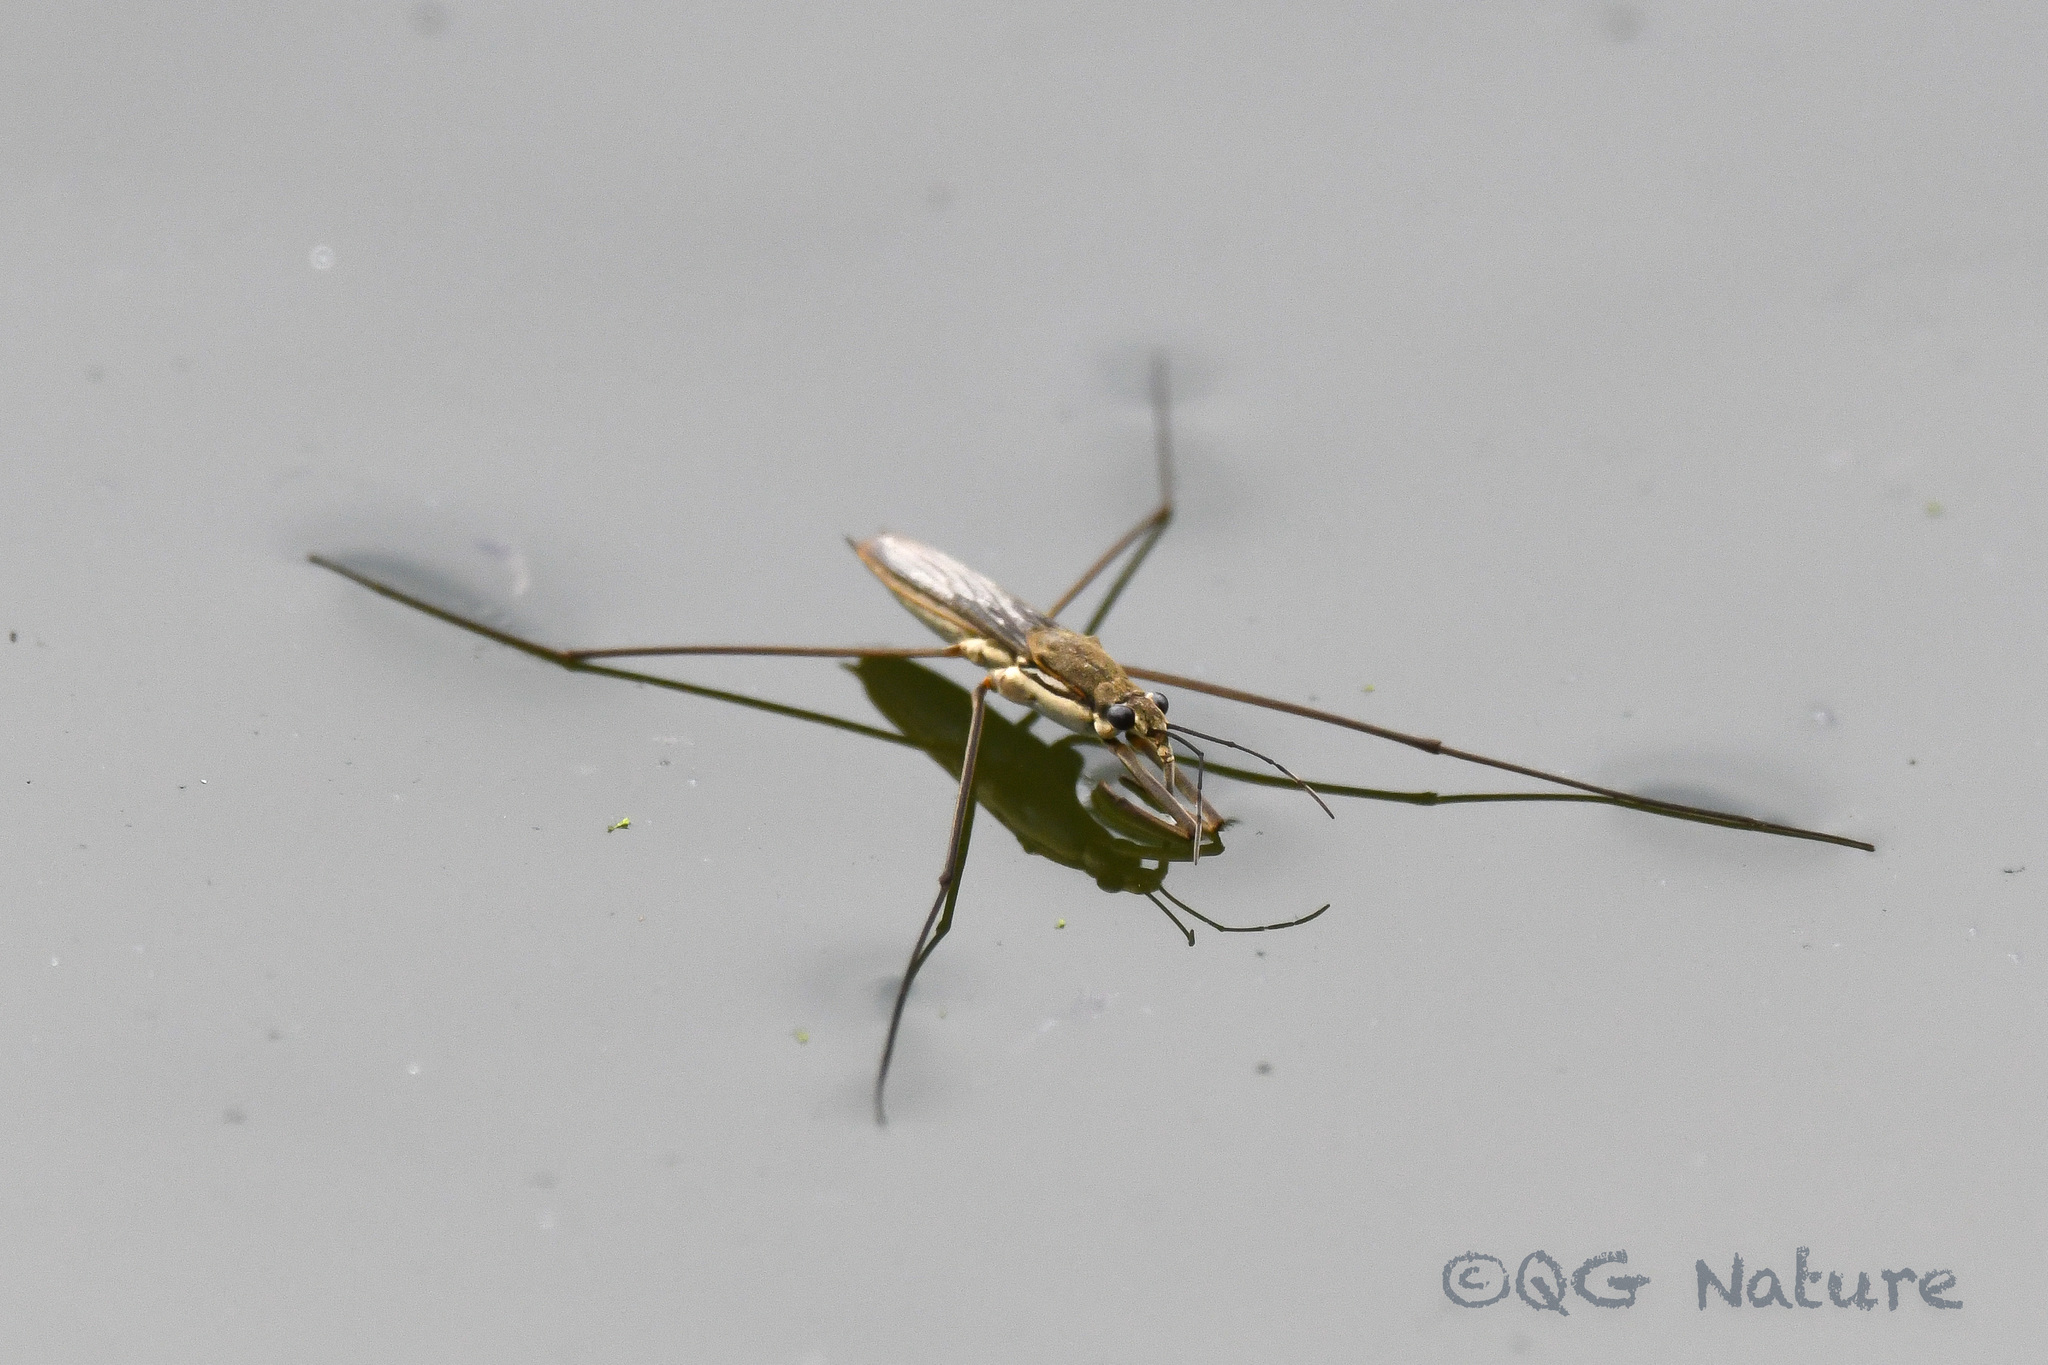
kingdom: Animalia
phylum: Arthropoda
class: Insecta
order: Hemiptera
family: Gerridae
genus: Aquarius
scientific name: Aquarius paludum
